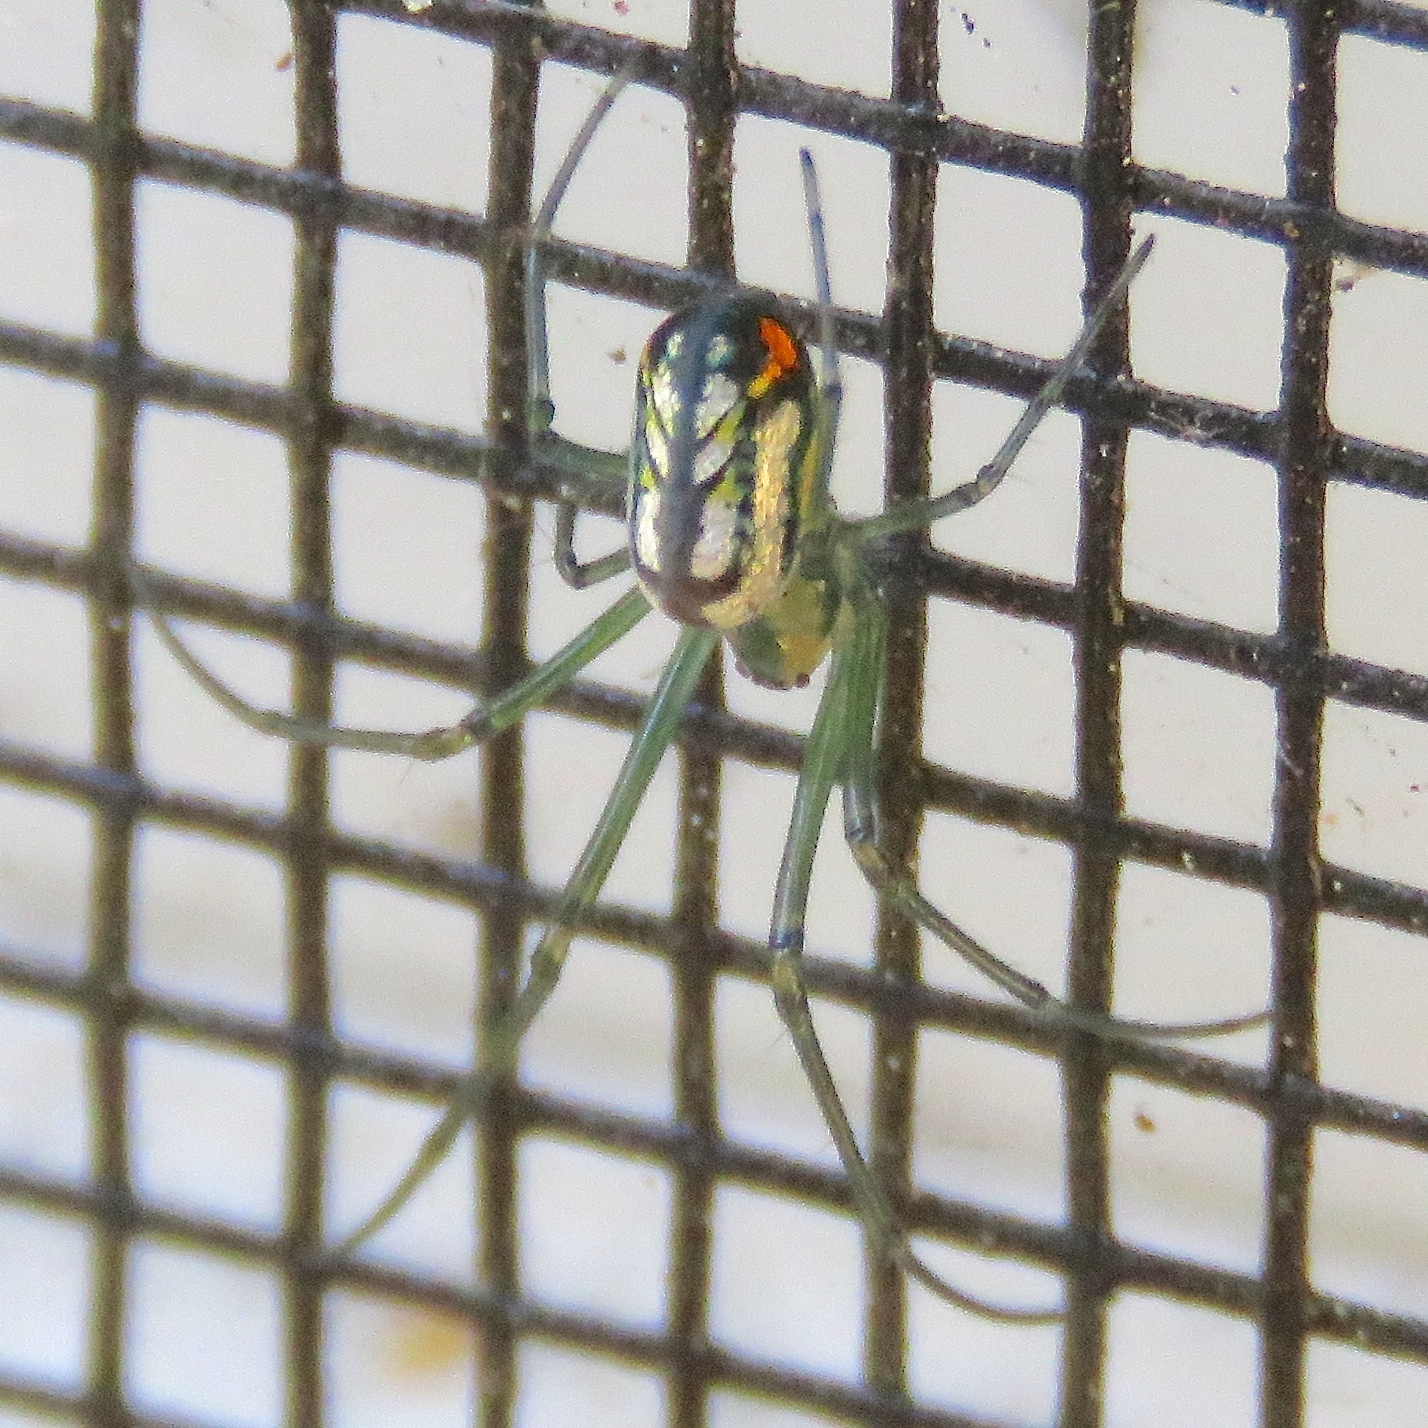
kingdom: Animalia
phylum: Arthropoda
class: Arachnida
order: Araneae
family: Tetragnathidae
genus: Leucauge
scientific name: Leucauge argyrobapta
